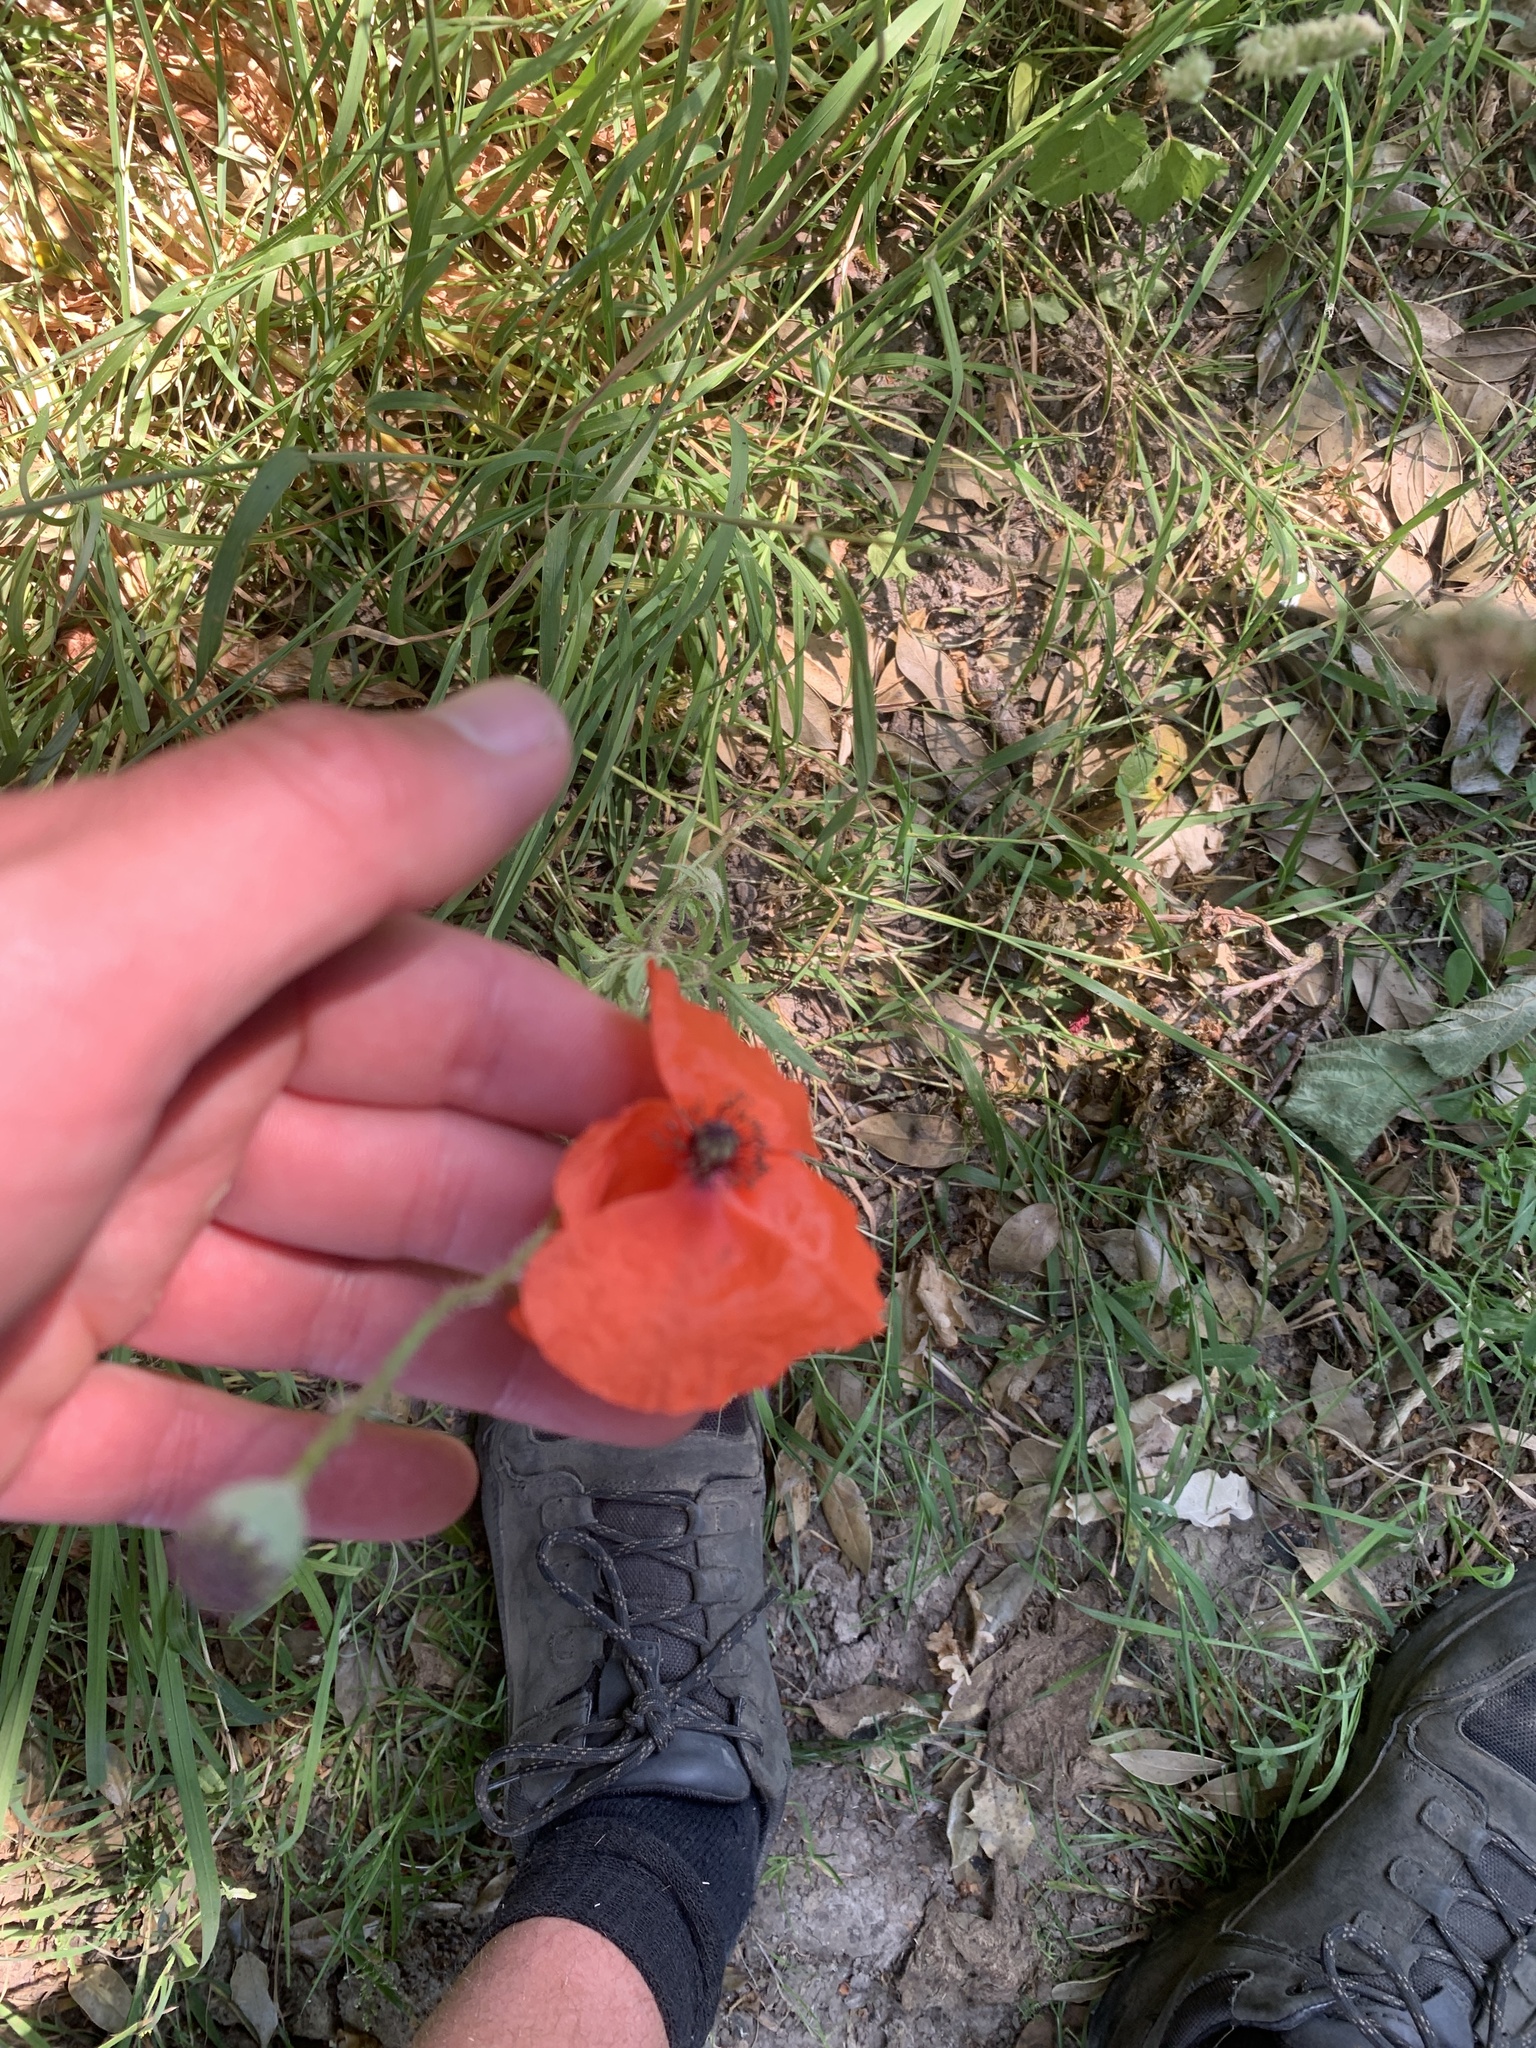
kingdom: Plantae
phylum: Tracheophyta
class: Magnoliopsida
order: Ranunculales
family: Papaveraceae
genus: Papaver
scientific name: Papaver rhoeas
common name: Corn poppy
